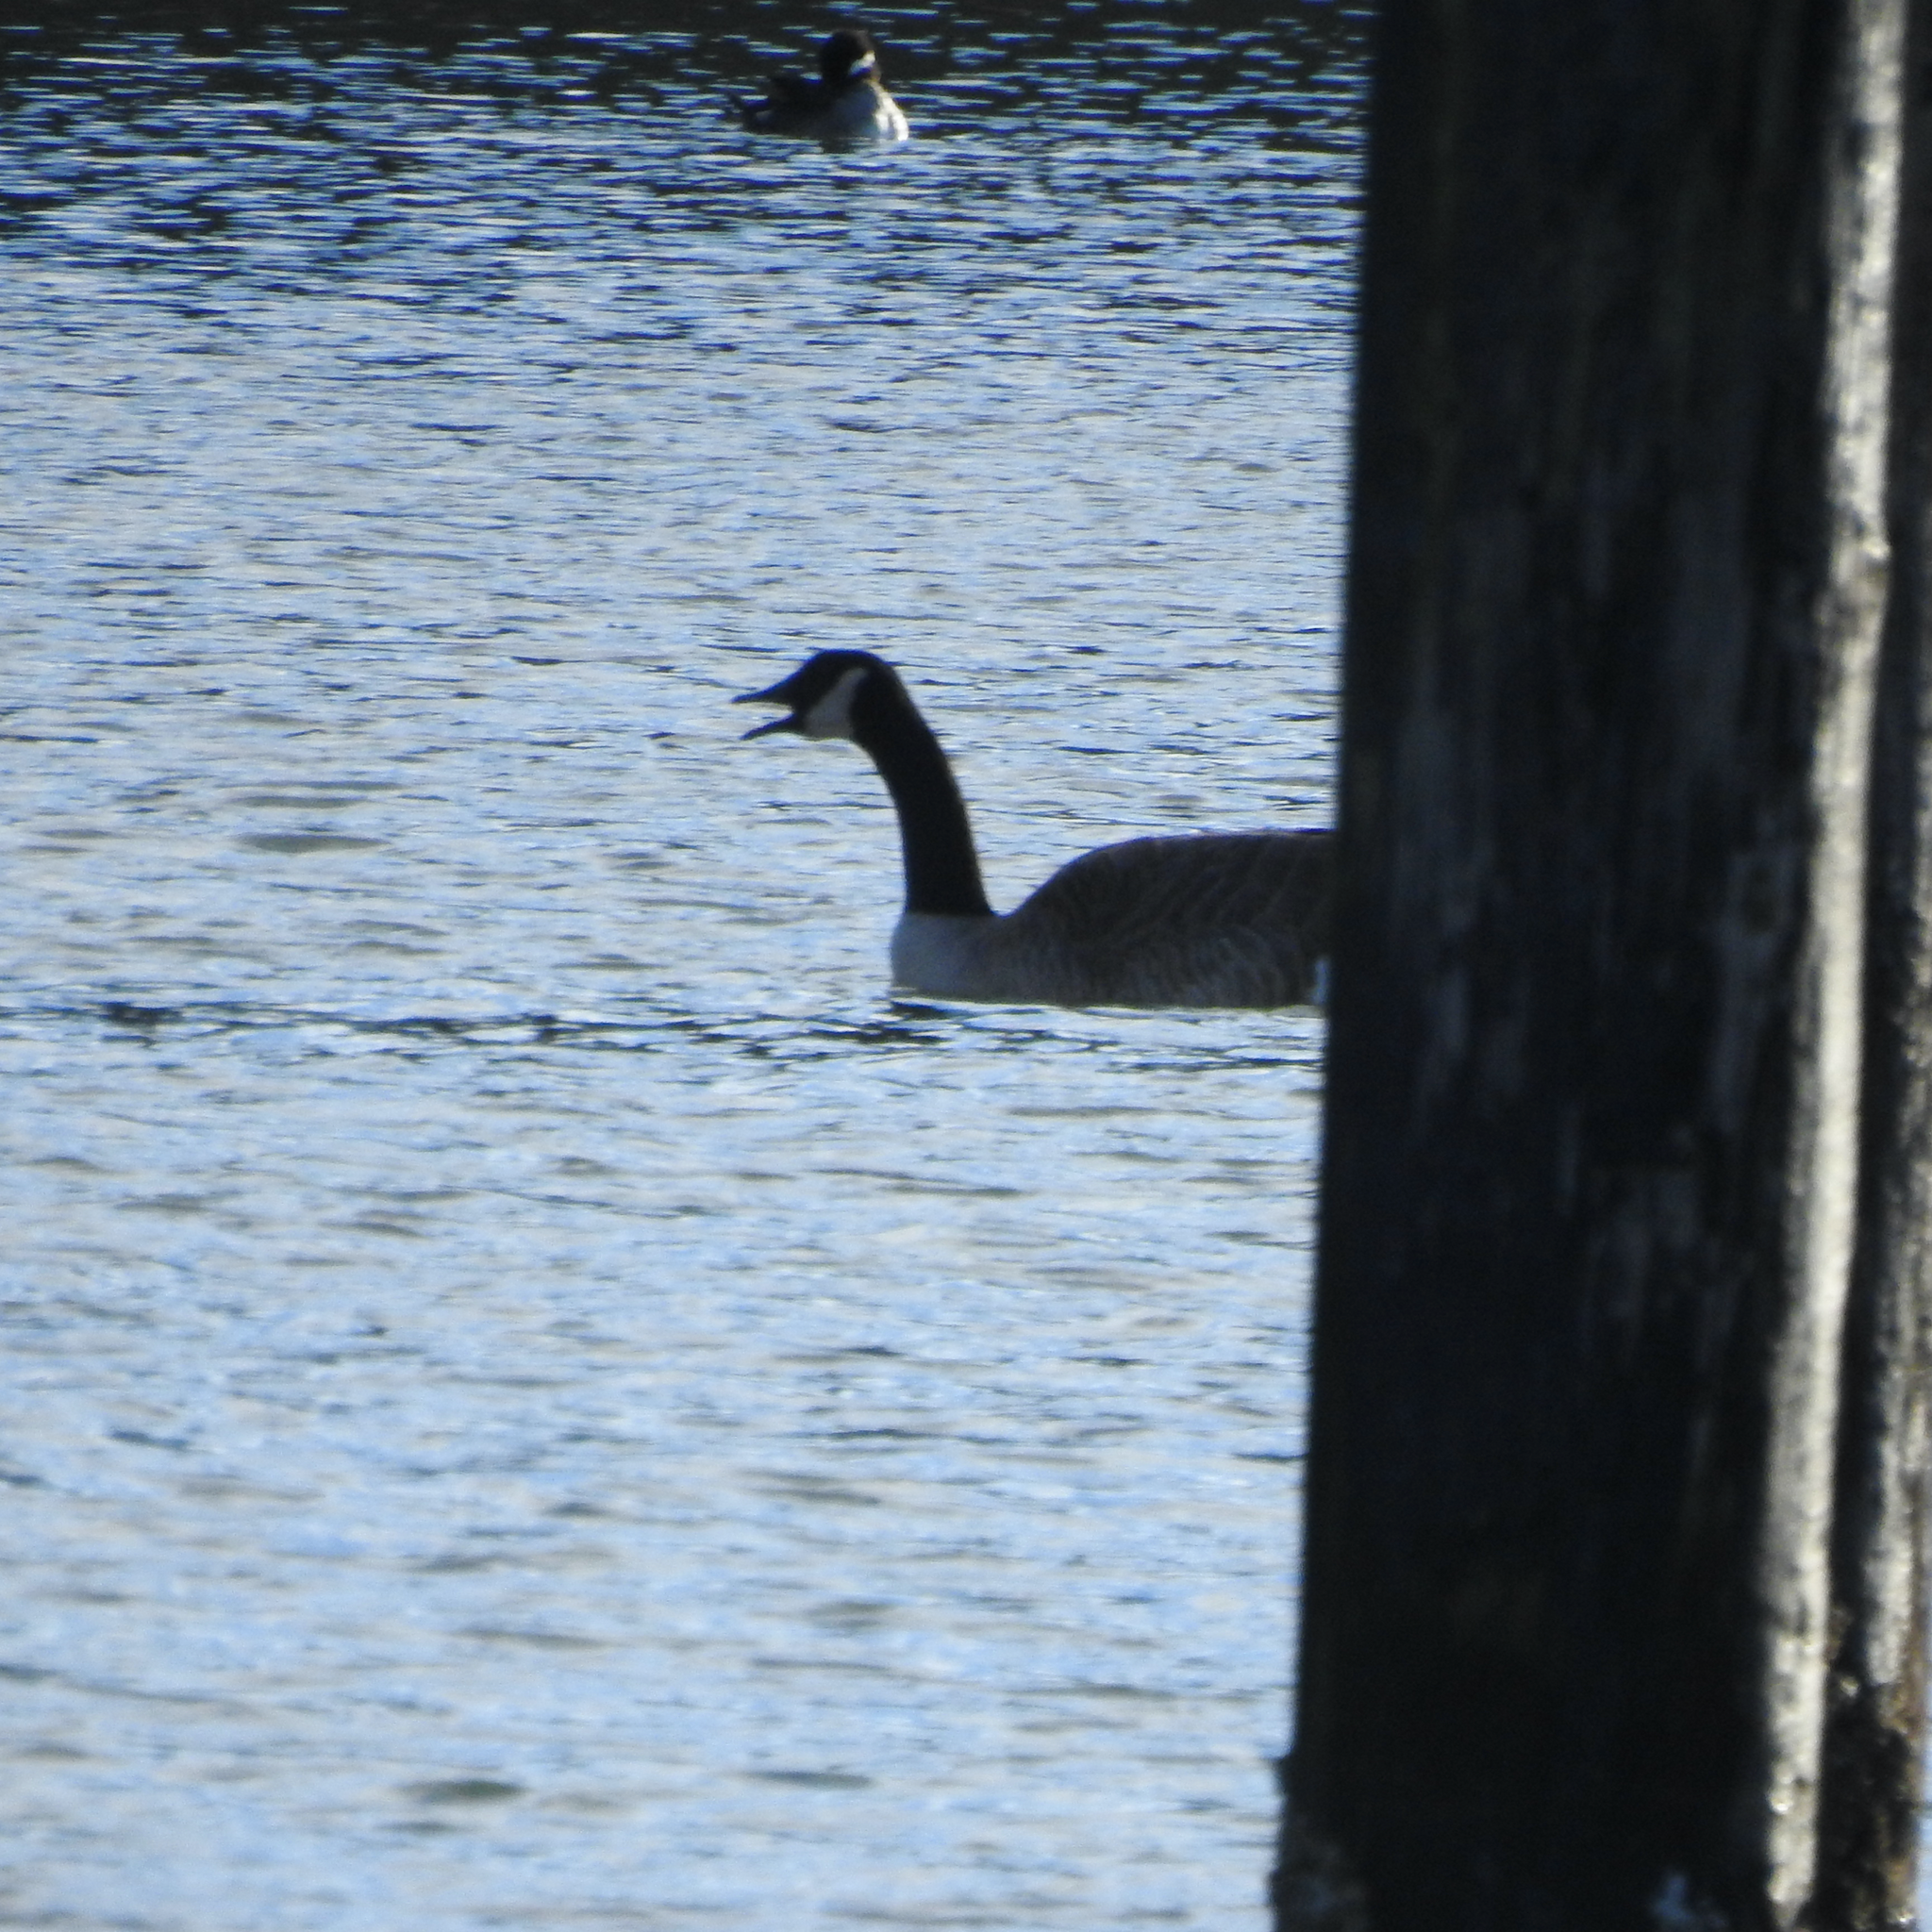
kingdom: Animalia
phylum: Chordata
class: Aves
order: Anseriformes
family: Anatidae
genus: Branta
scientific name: Branta canadensis
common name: Canada goose
